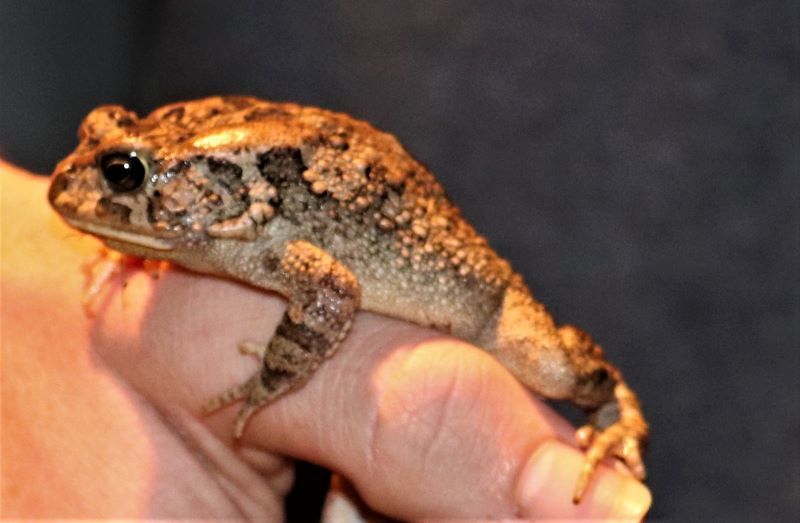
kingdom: Animalia
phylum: Chordata
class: Amphibia
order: Anura
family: Bufonidae
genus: Sclerophrys
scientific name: Sclerophrys gutturalis
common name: African common toad
